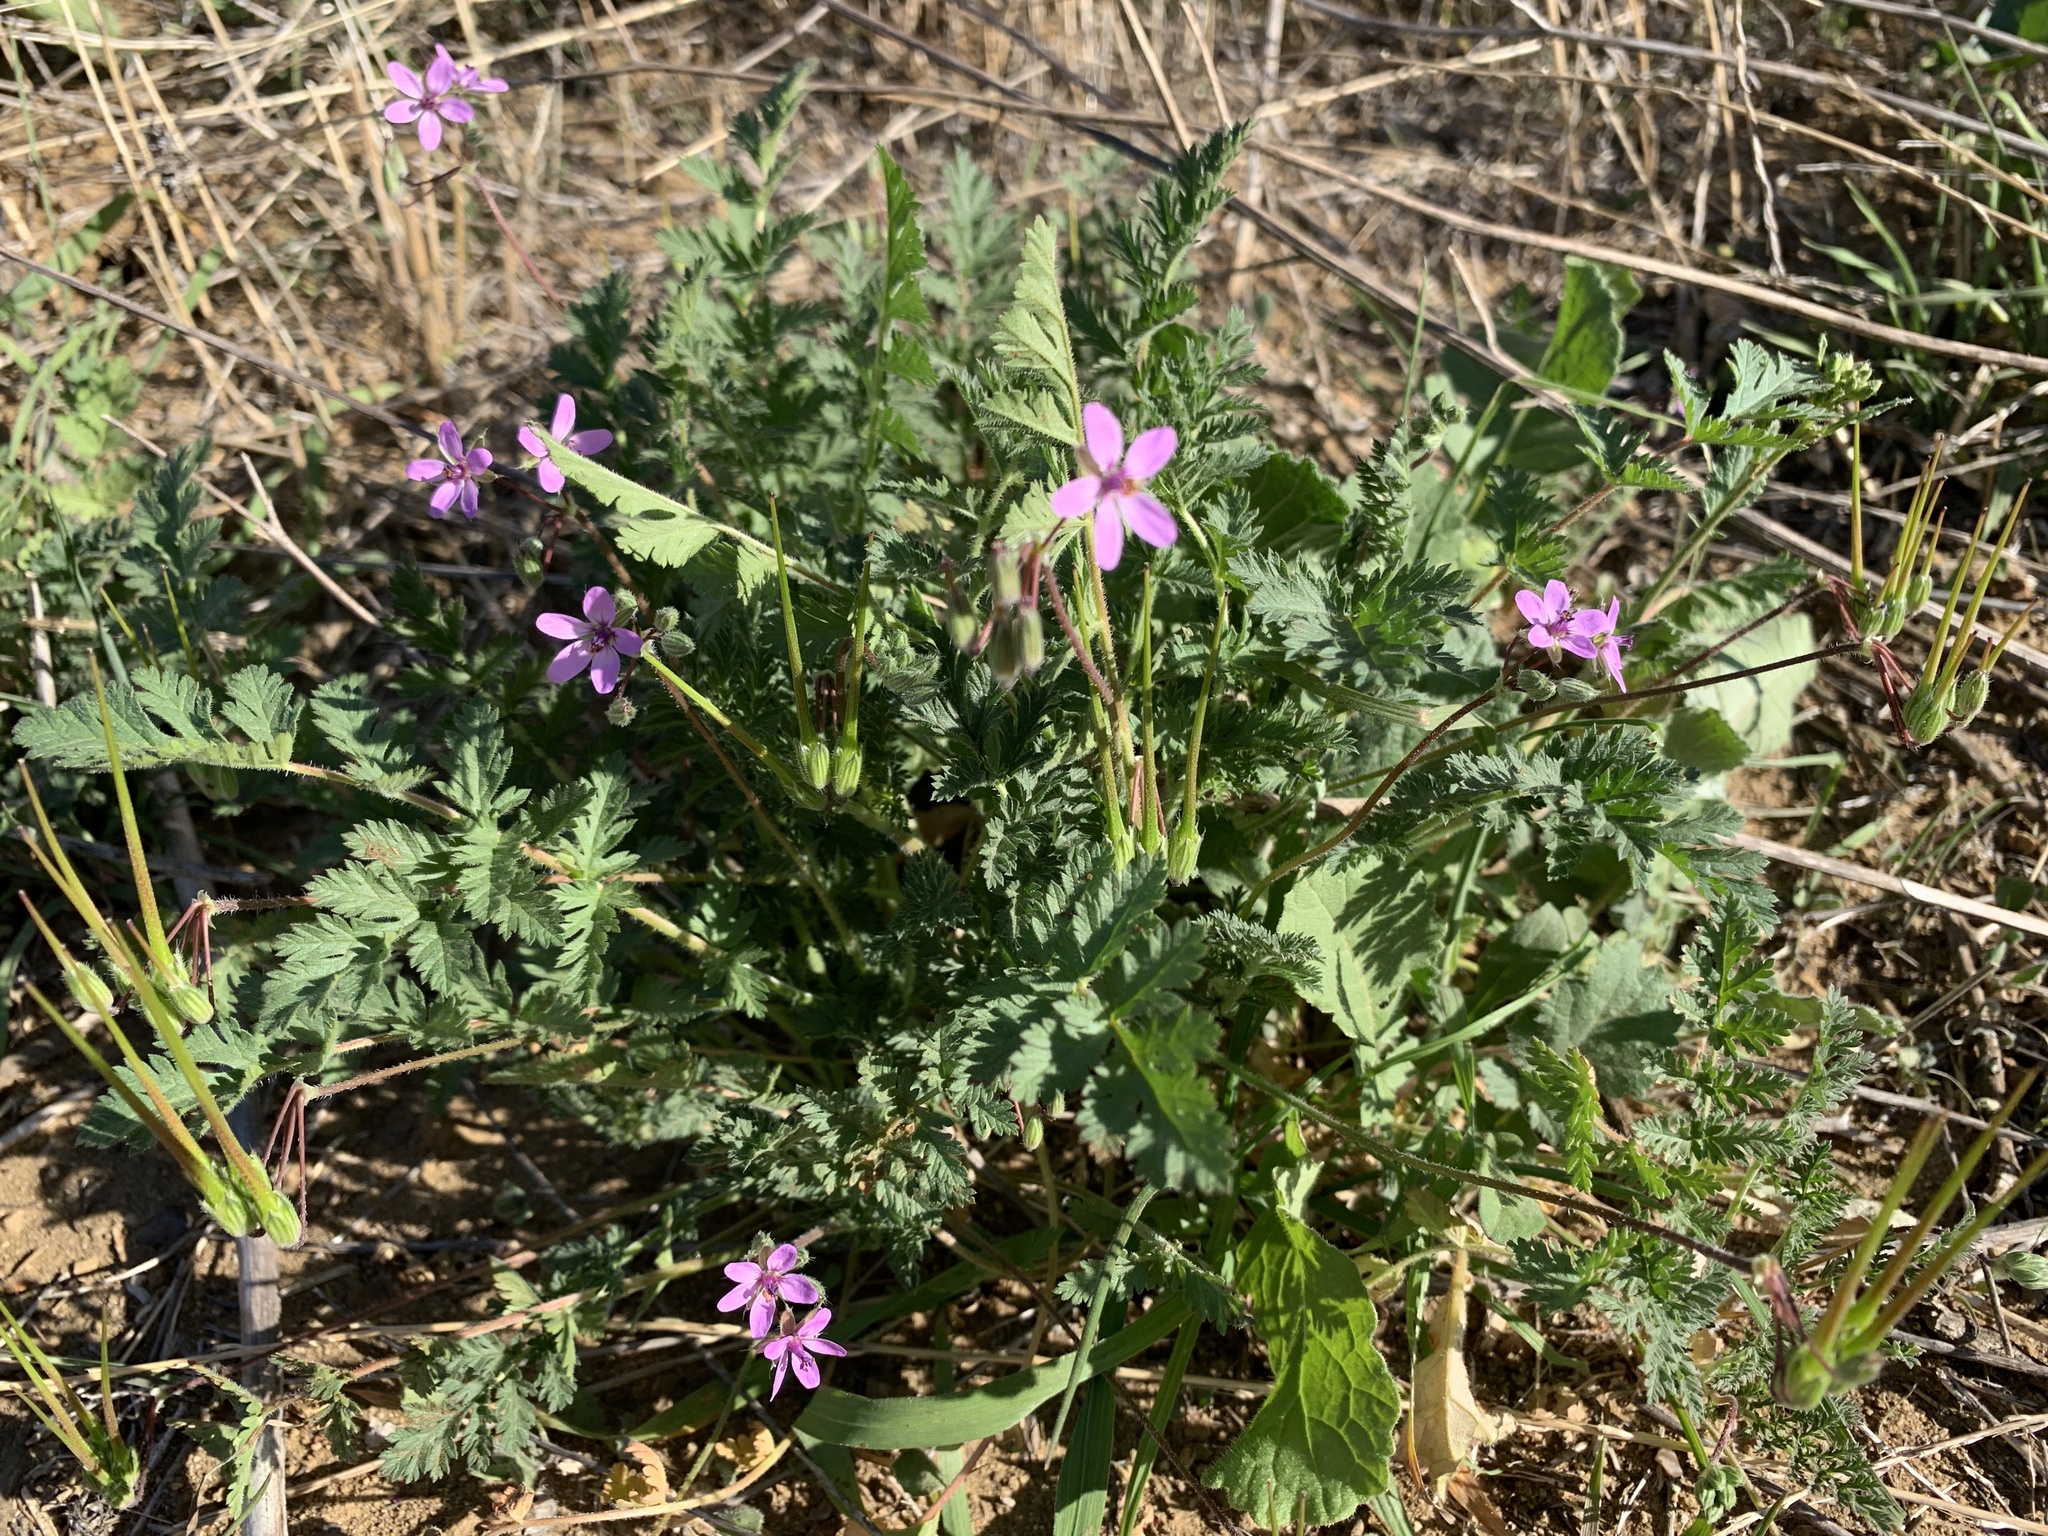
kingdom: Plantae
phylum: Tracheophyta
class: Magnoliopsida
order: Geraniales
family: Geraniaceae
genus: Erodium
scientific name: Erodium cicutarium
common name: Common stork's-bill
